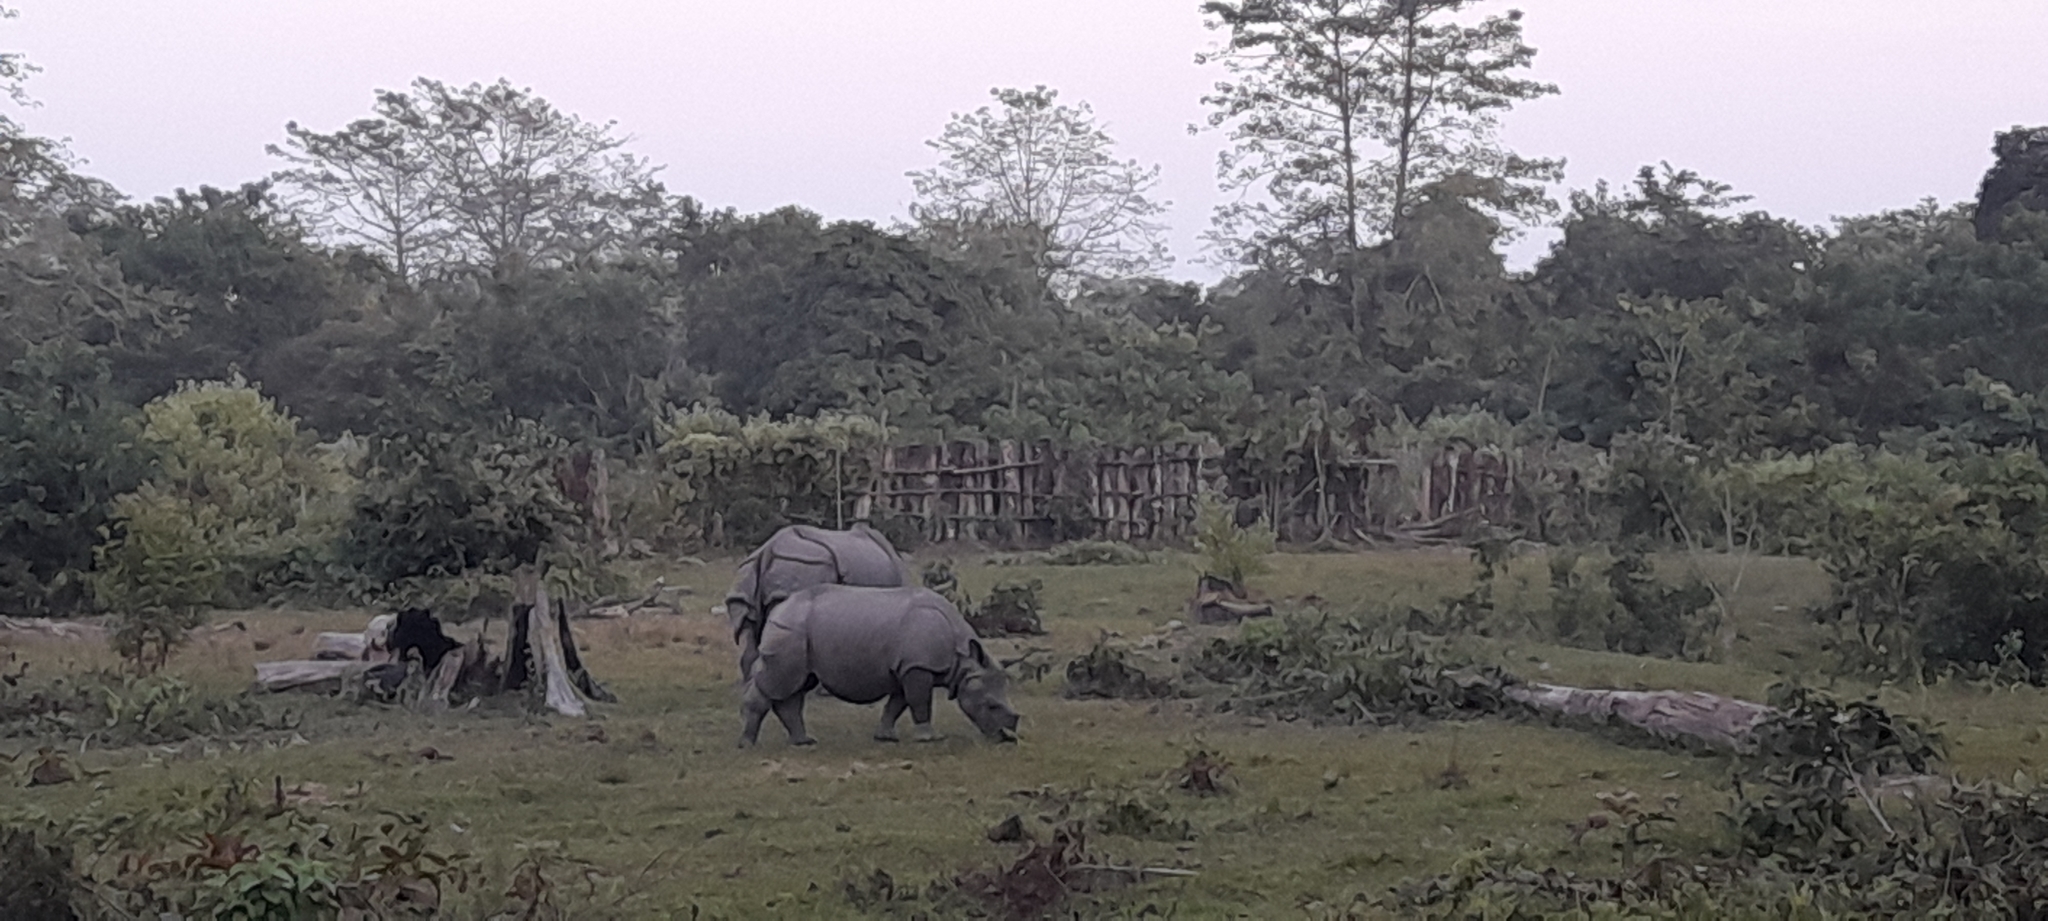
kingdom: Animalia
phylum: Chordata
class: Mammalia
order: Perissodactyla
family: Rhinocerotidae
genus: Rhinoceros
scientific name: Rhinoceros unicornis
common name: Indian rhinoceros
